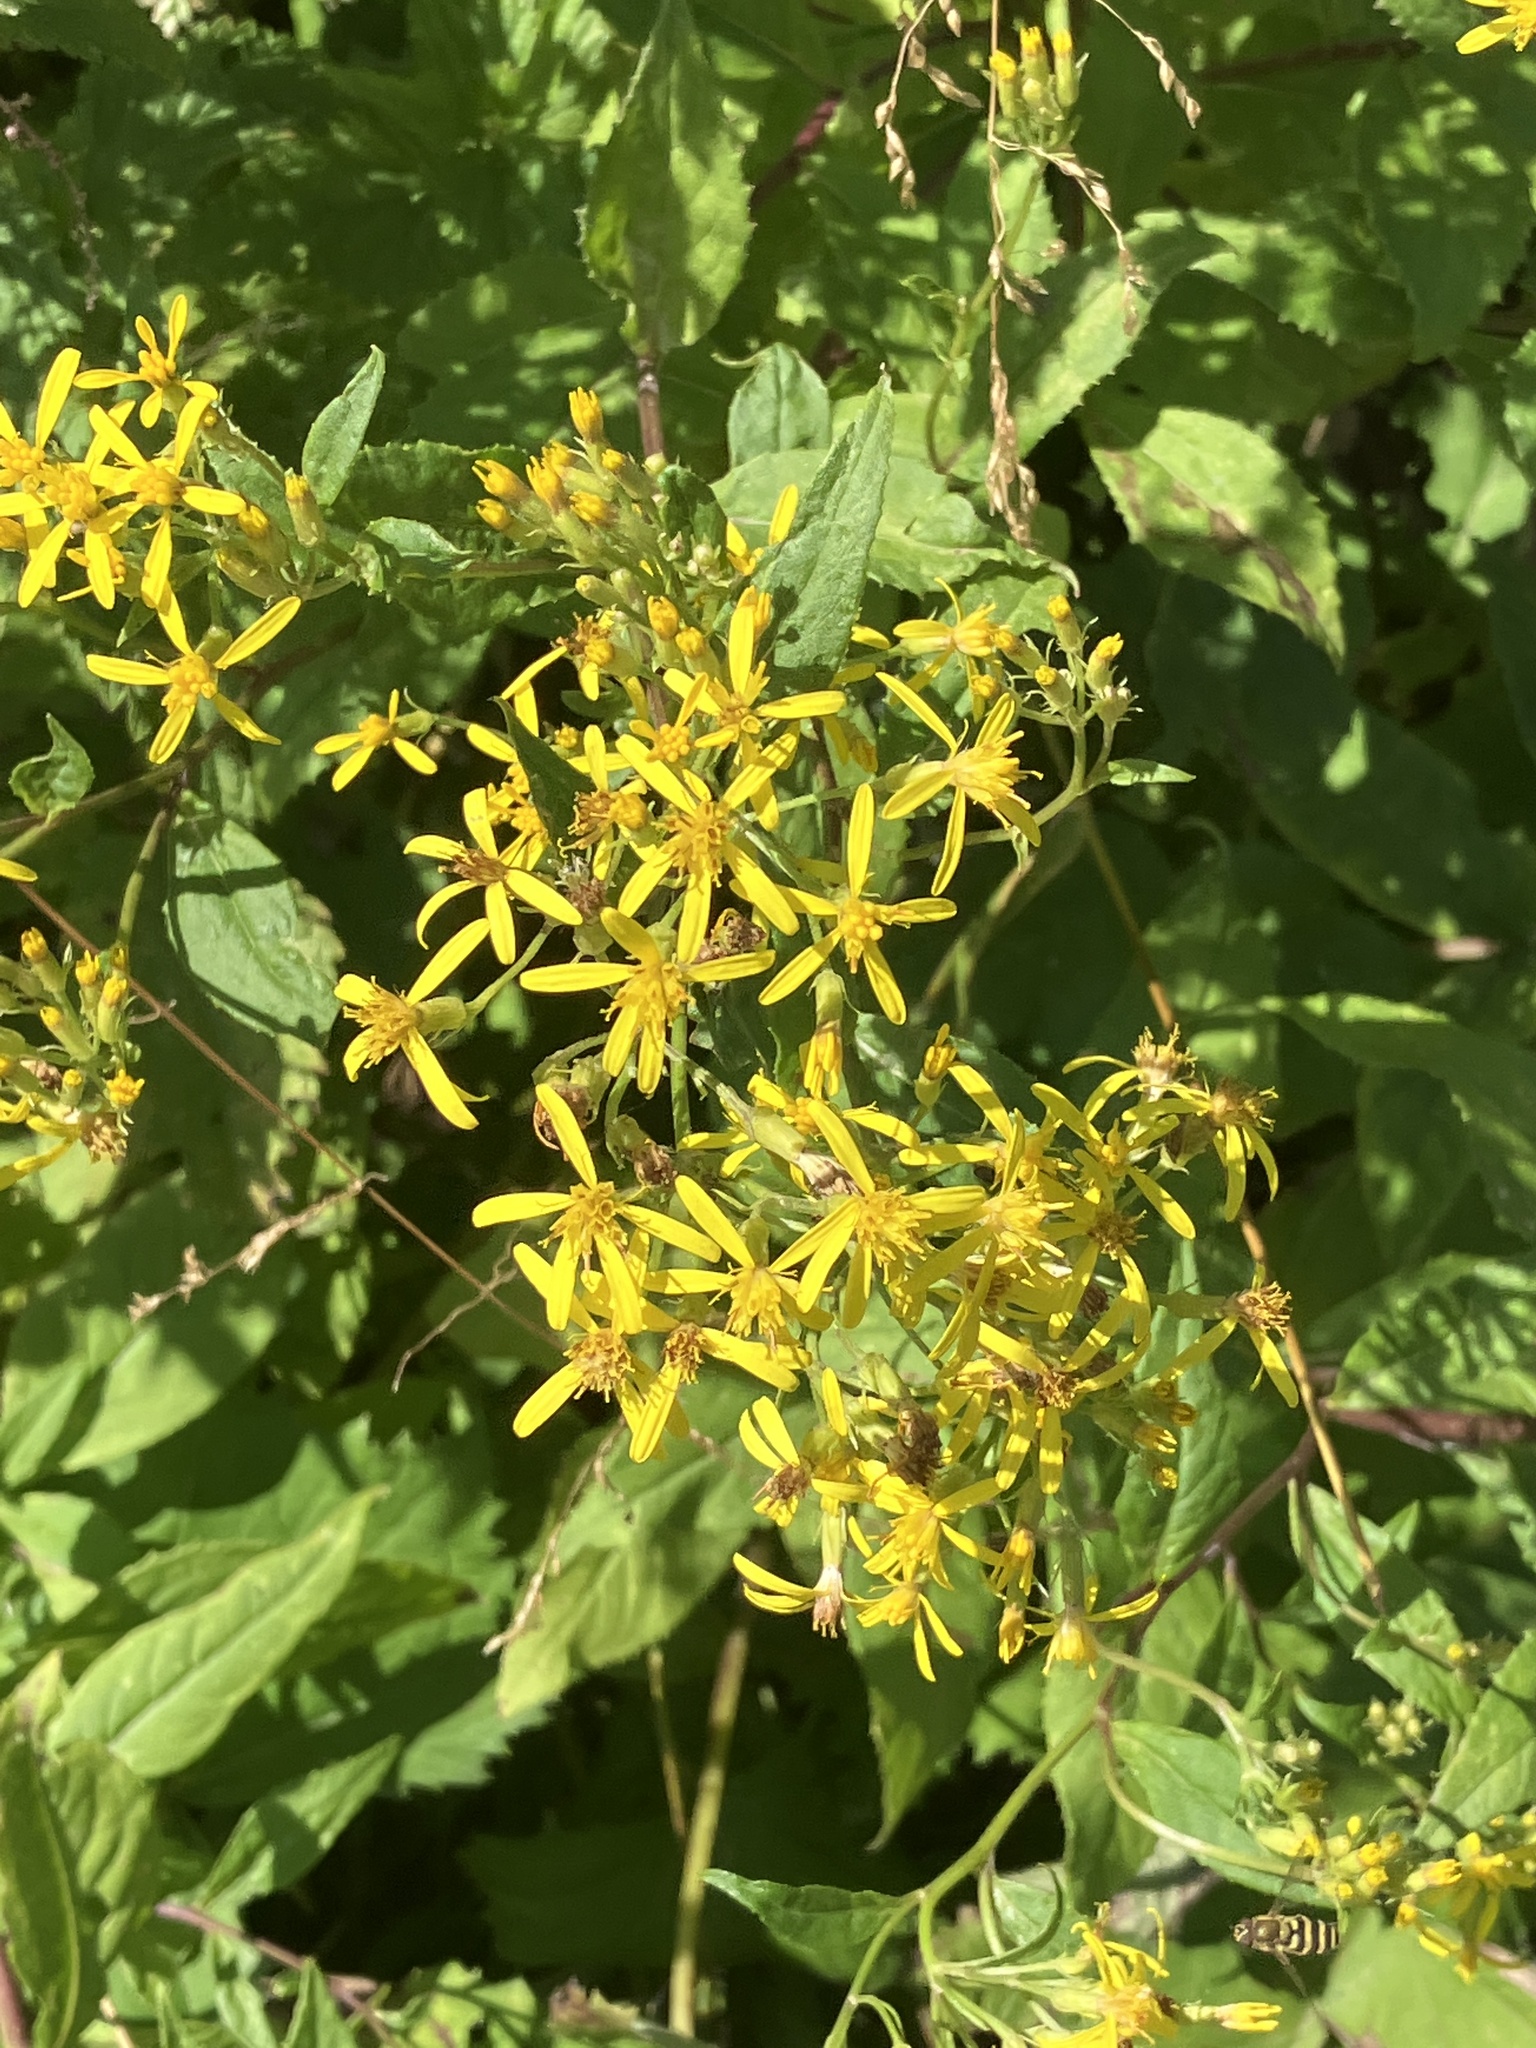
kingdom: Plantae
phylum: Tracheophyta
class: Magnoliopsida
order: Asterales
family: Asteraceae
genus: Senecio
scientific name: Senecio ovatus
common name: Wood ragwort
